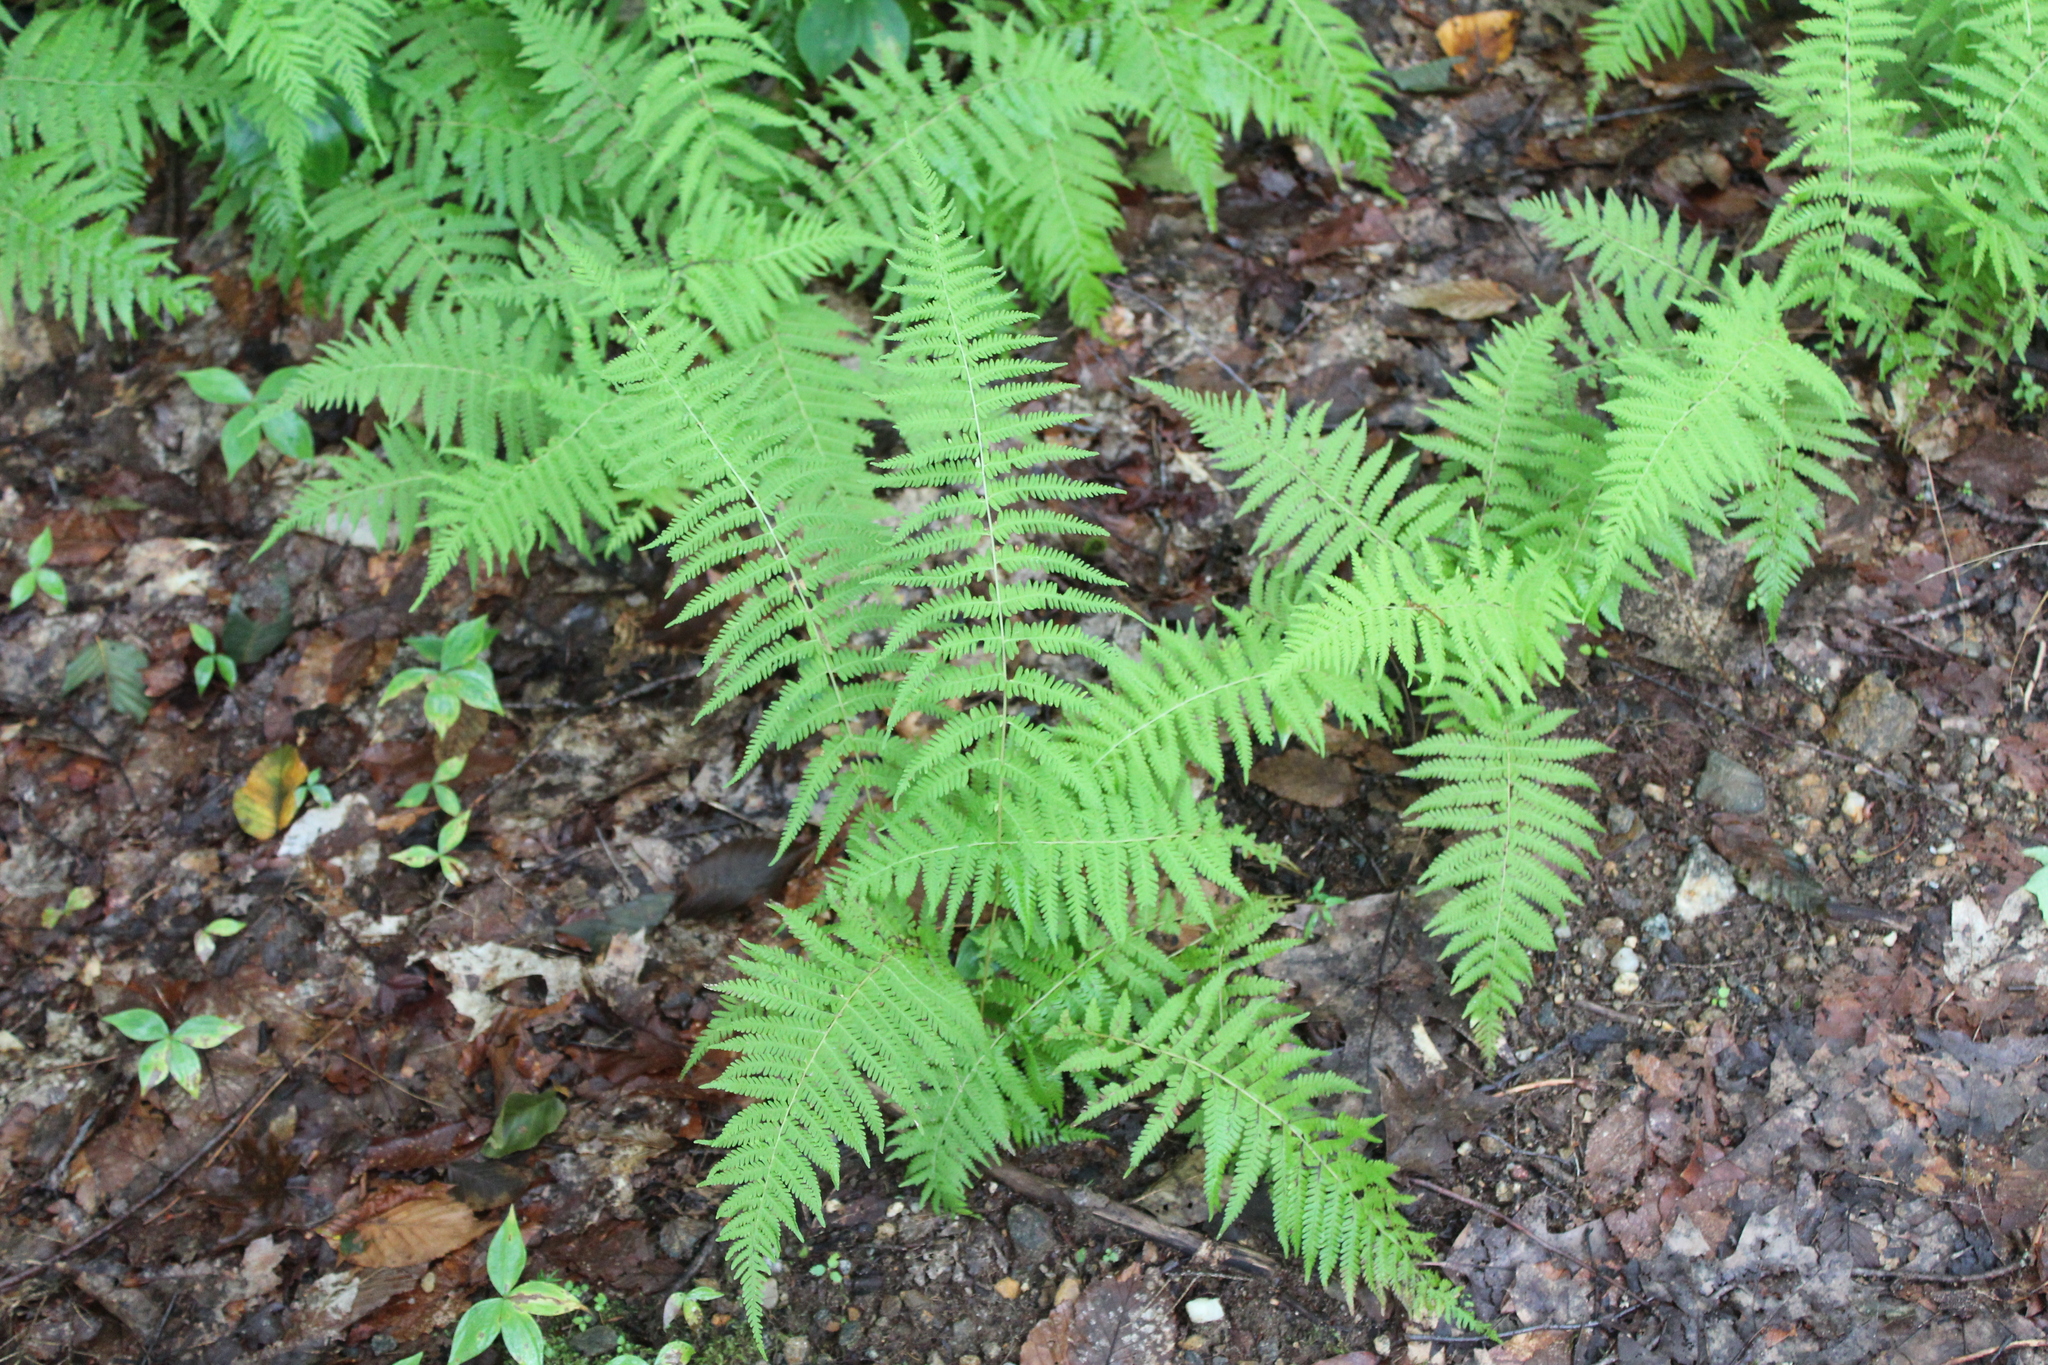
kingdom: Plantae
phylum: Tracheophyta
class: Polypodiopsida
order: Polypodiales
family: Thelypteridaceae
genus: Amauropelta
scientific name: Amauropelta noveboracensis
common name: New york fern
